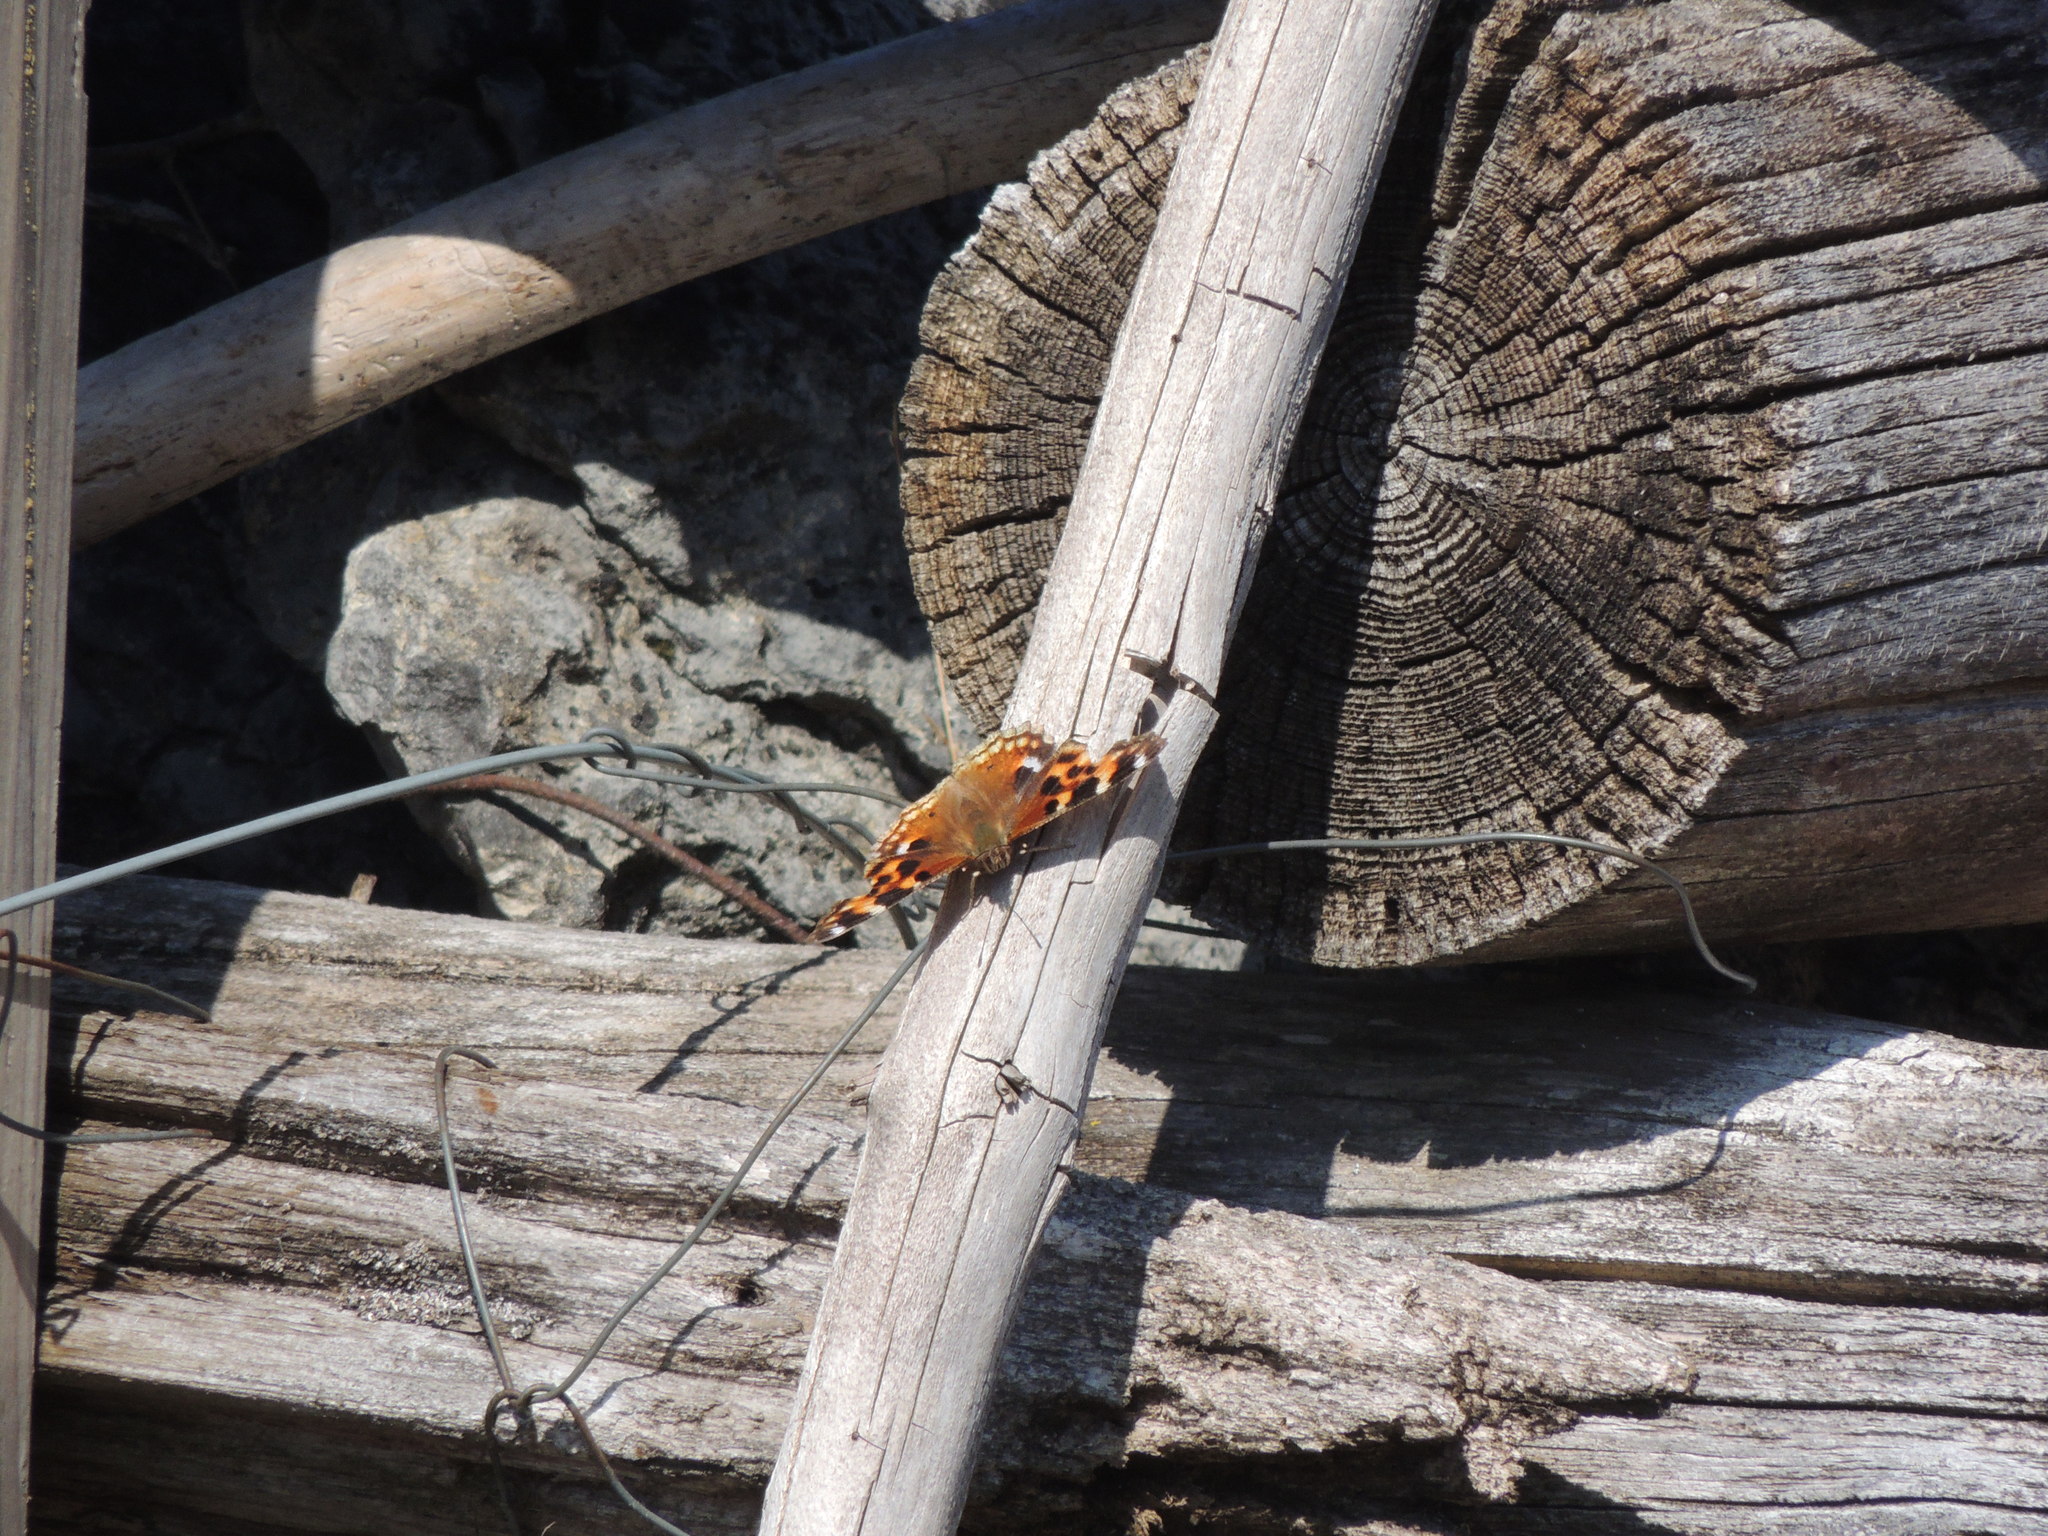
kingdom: Animalia
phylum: Arthropoda
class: Insecta
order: Lepidoptera
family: Nymphalidae
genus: Polygonia
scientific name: Polygonia vaualbum
